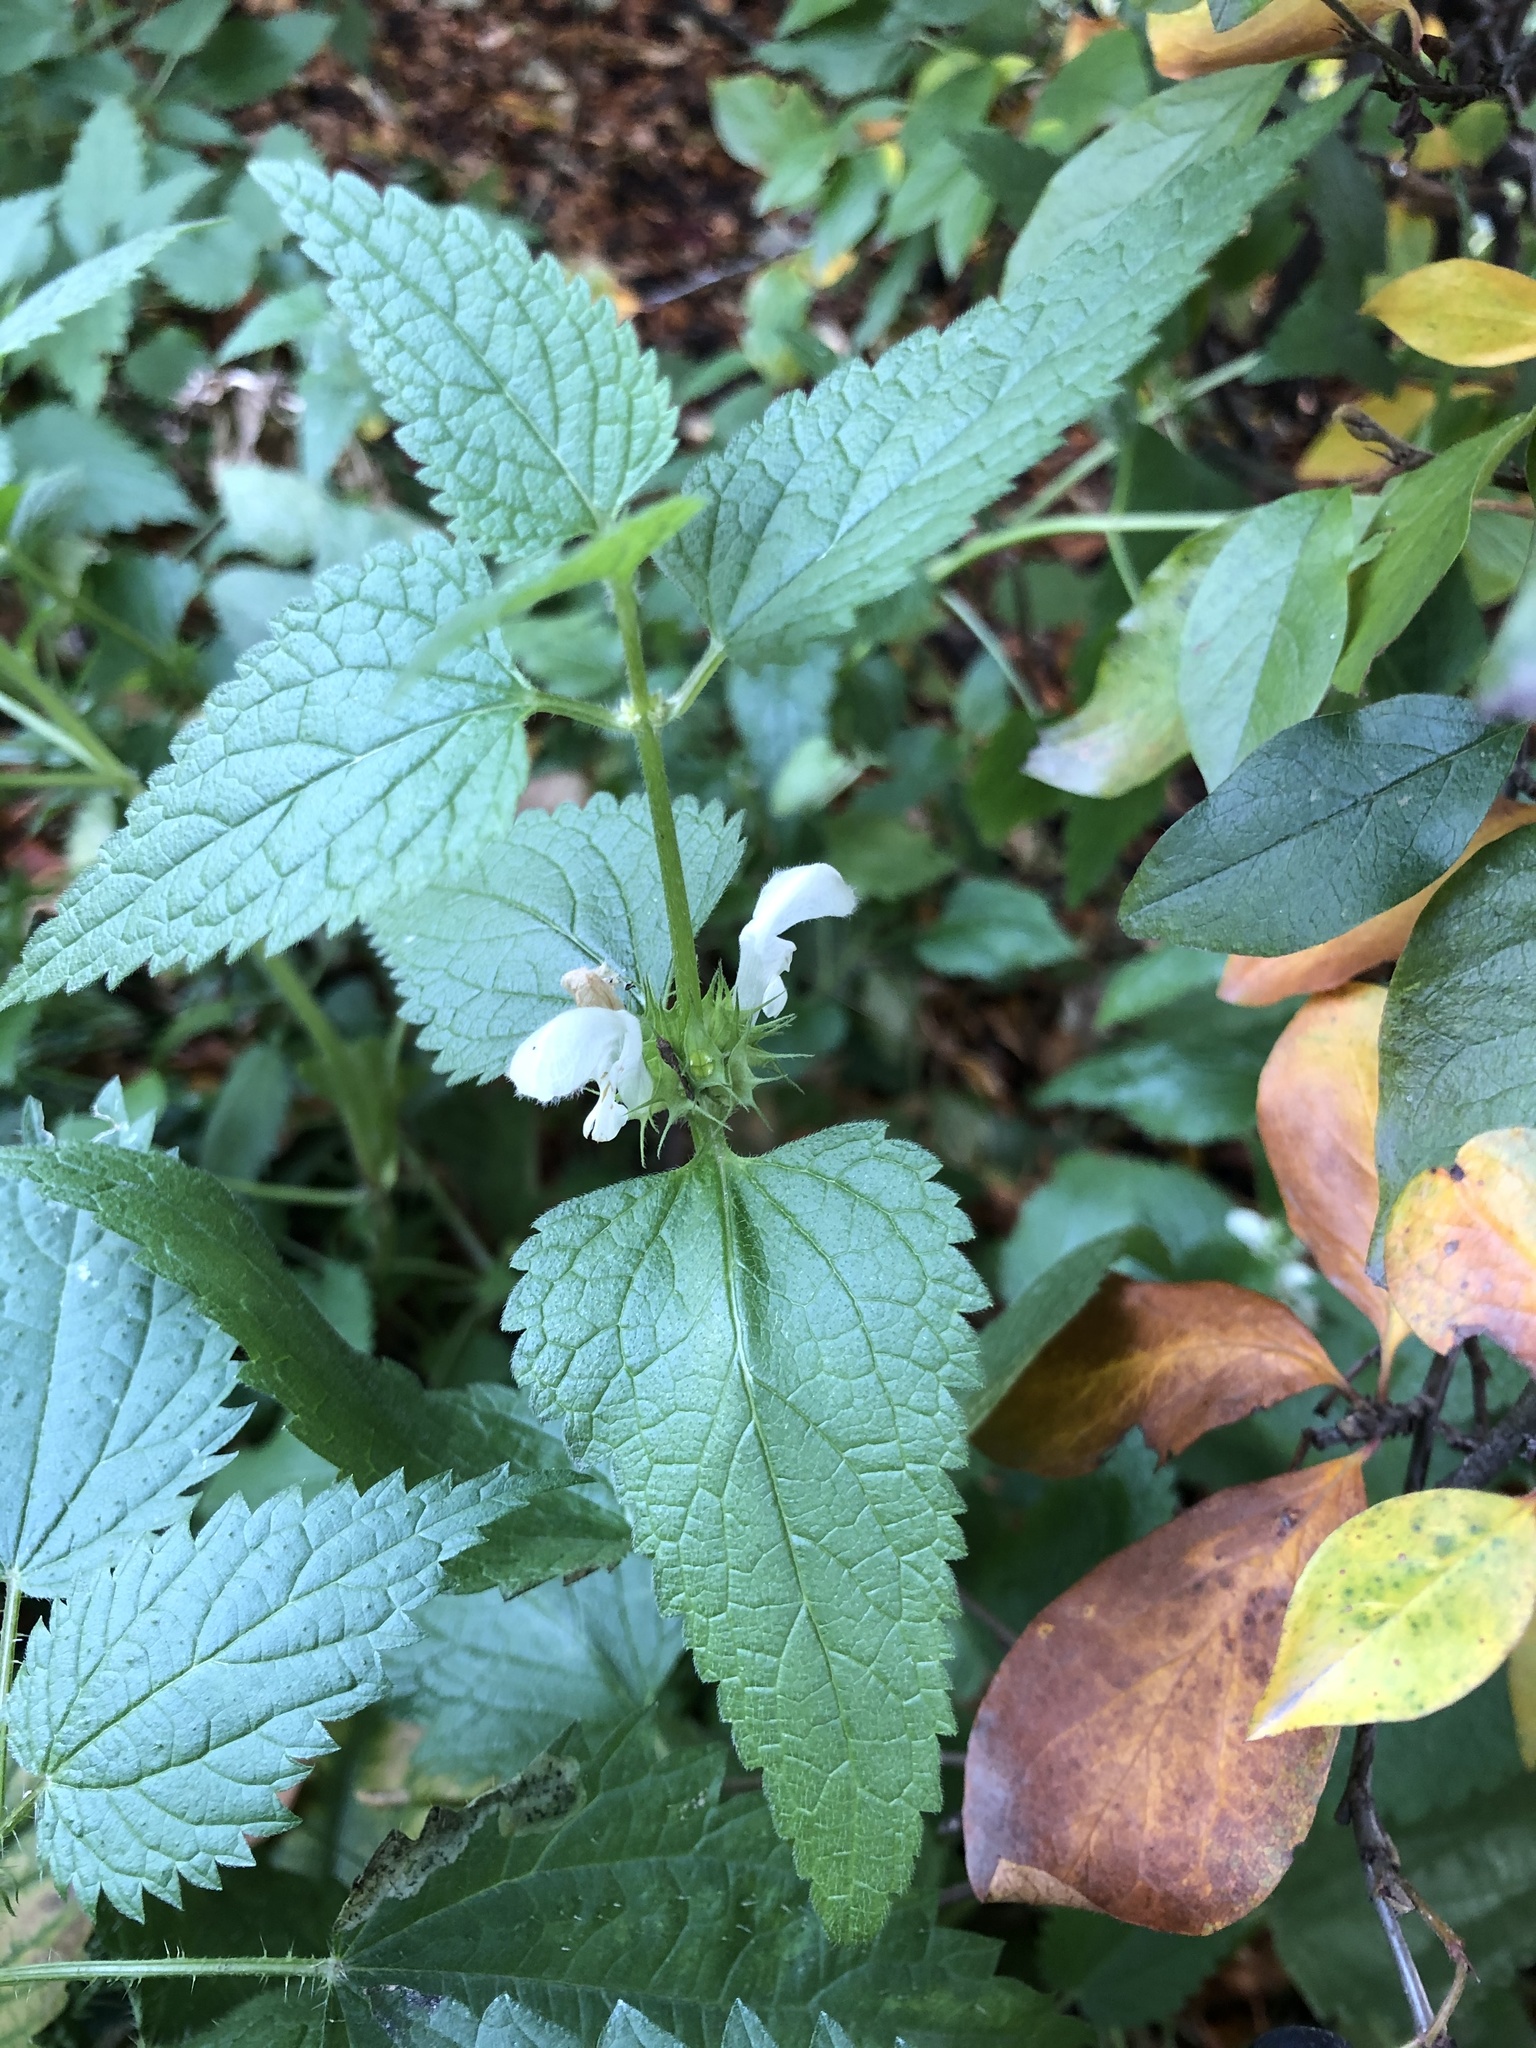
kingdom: Plantae
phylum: Tracheophyta
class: Magnoliopsida
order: Lamiales
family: Lamiaceae
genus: Lamium
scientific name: Lamium album
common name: White dead-nettle
